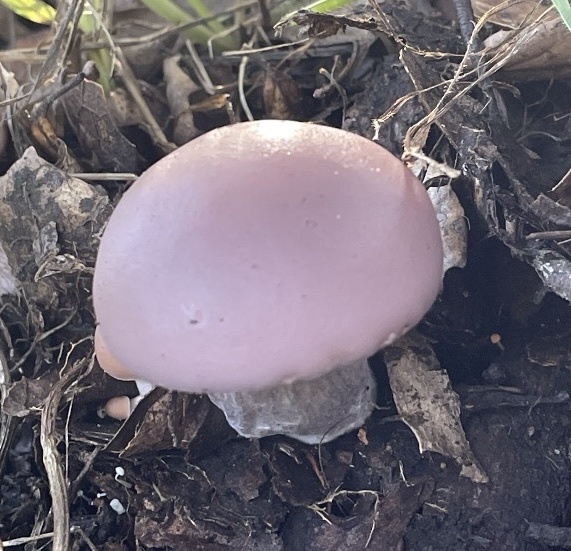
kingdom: Fungi
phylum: Basidiomycota
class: Agaricomycetes
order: Agaricales
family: Tricholomataceae
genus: Collybia
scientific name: Collybia
